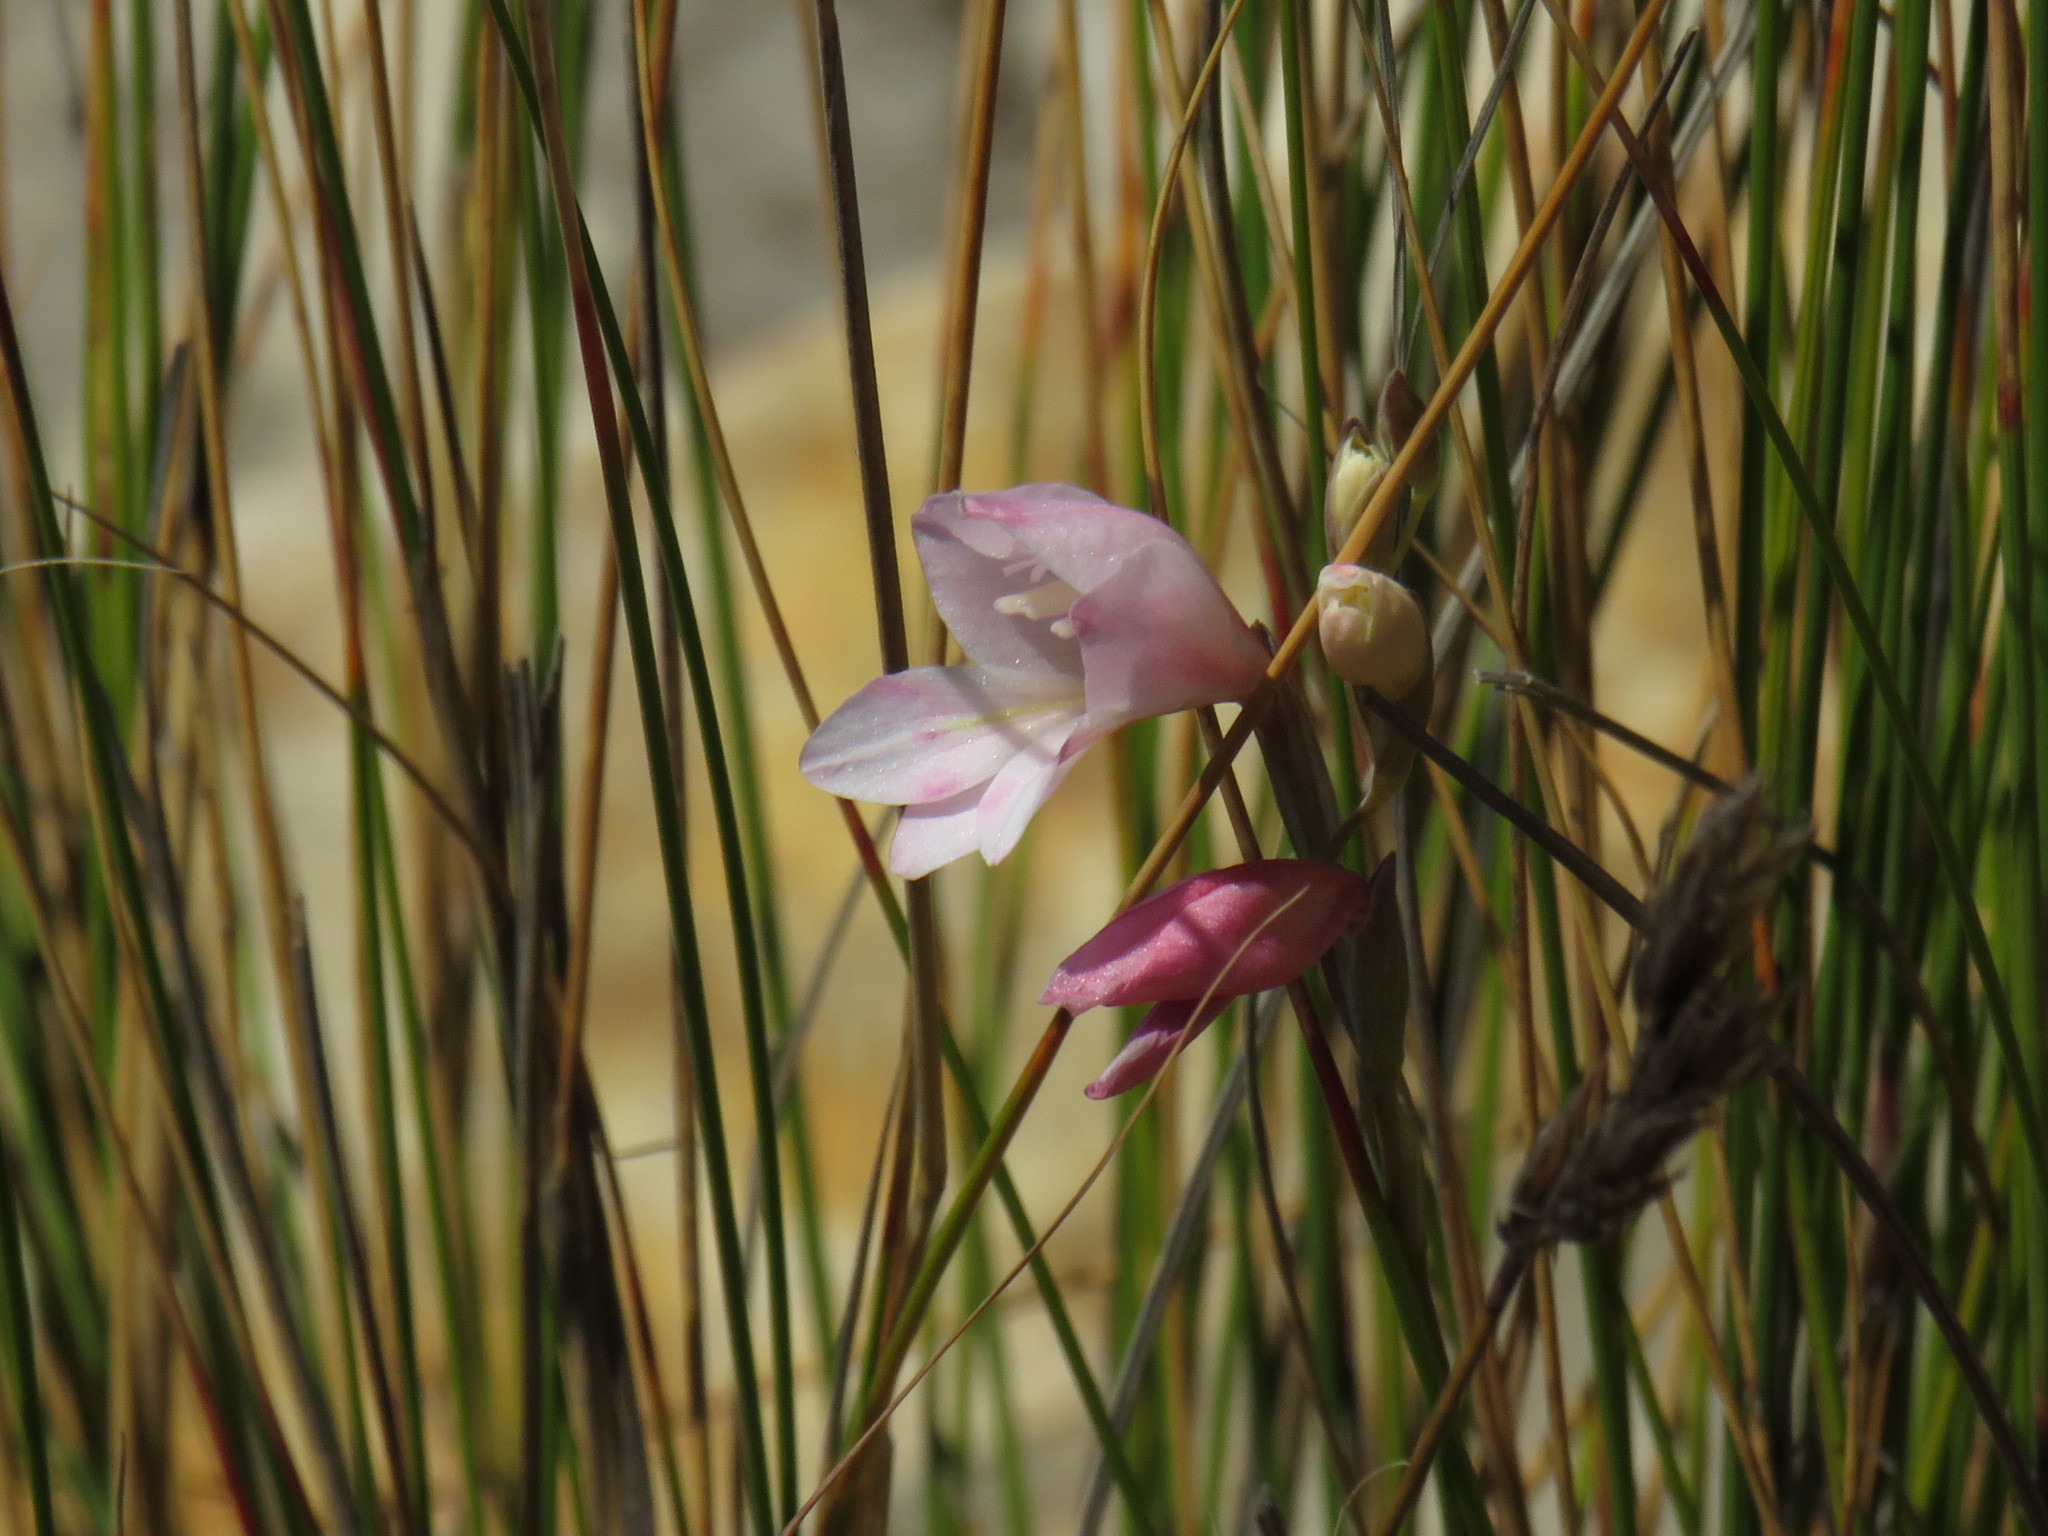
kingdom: Plantae
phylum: Tracheophyta
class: Liliopsida
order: Asparagales
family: Iridaceae
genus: Gladiolus
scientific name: Gladiolus brevifolius
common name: March pypie
